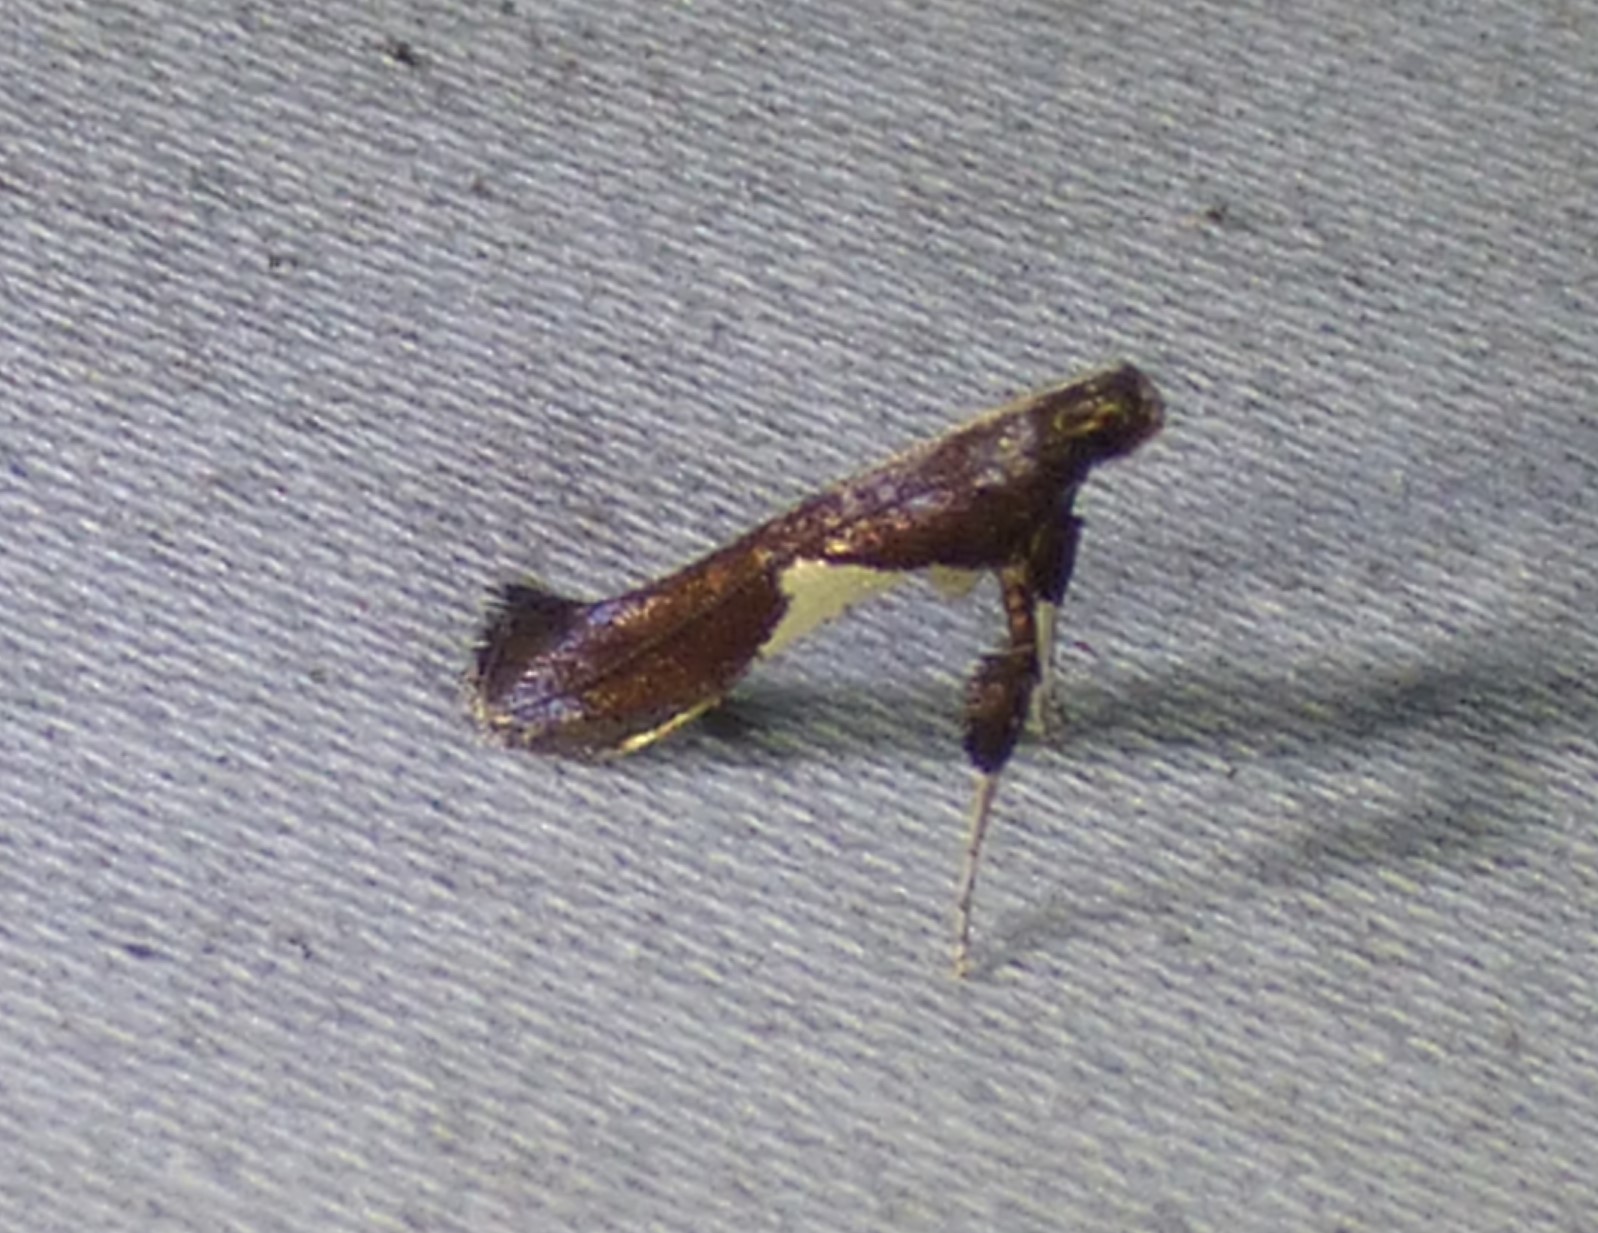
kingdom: Animalia
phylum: Arthropoda
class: Insecta
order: Lepidoptera
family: Gracillariidae
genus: Caloptilia
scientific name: Caloptilia stigmatella
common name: White-triangle slender
